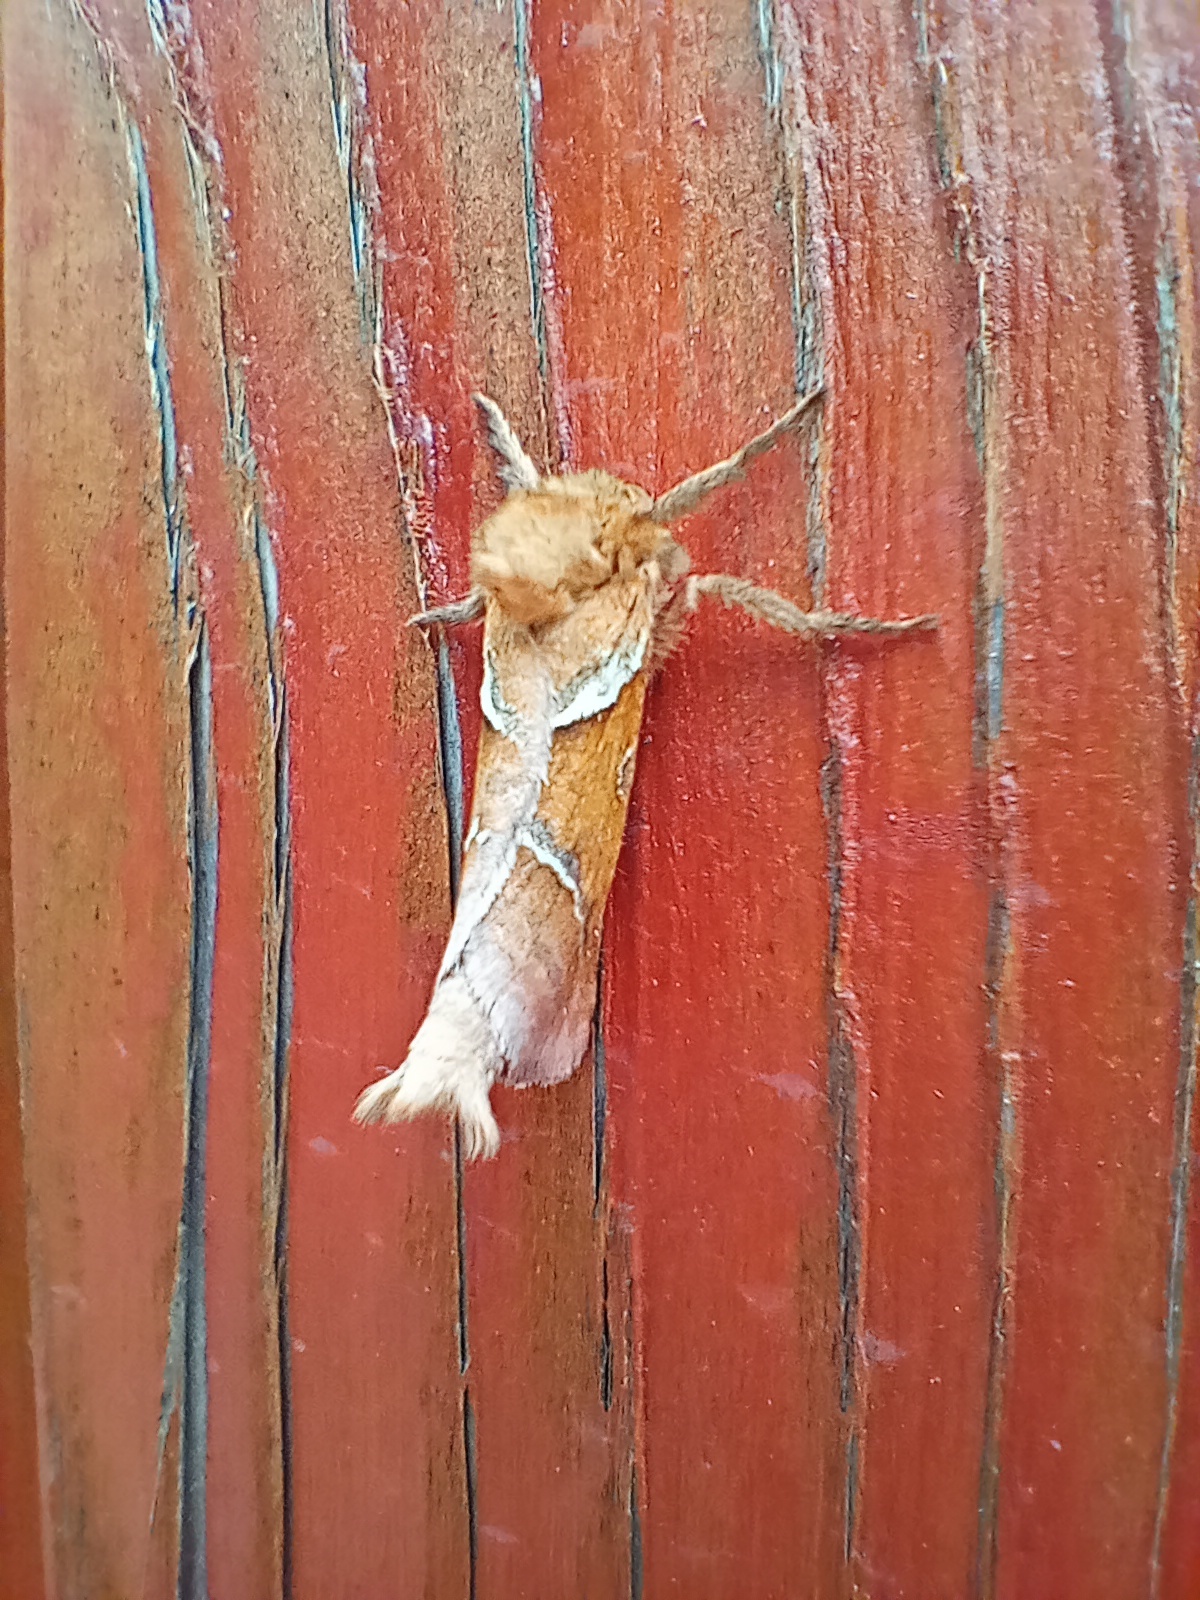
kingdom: Animalia
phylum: Arthropoda
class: Insecta
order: Lepidoptera
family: Hepialidae
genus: Triodia
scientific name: Triodia sylvina
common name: Orange swift
